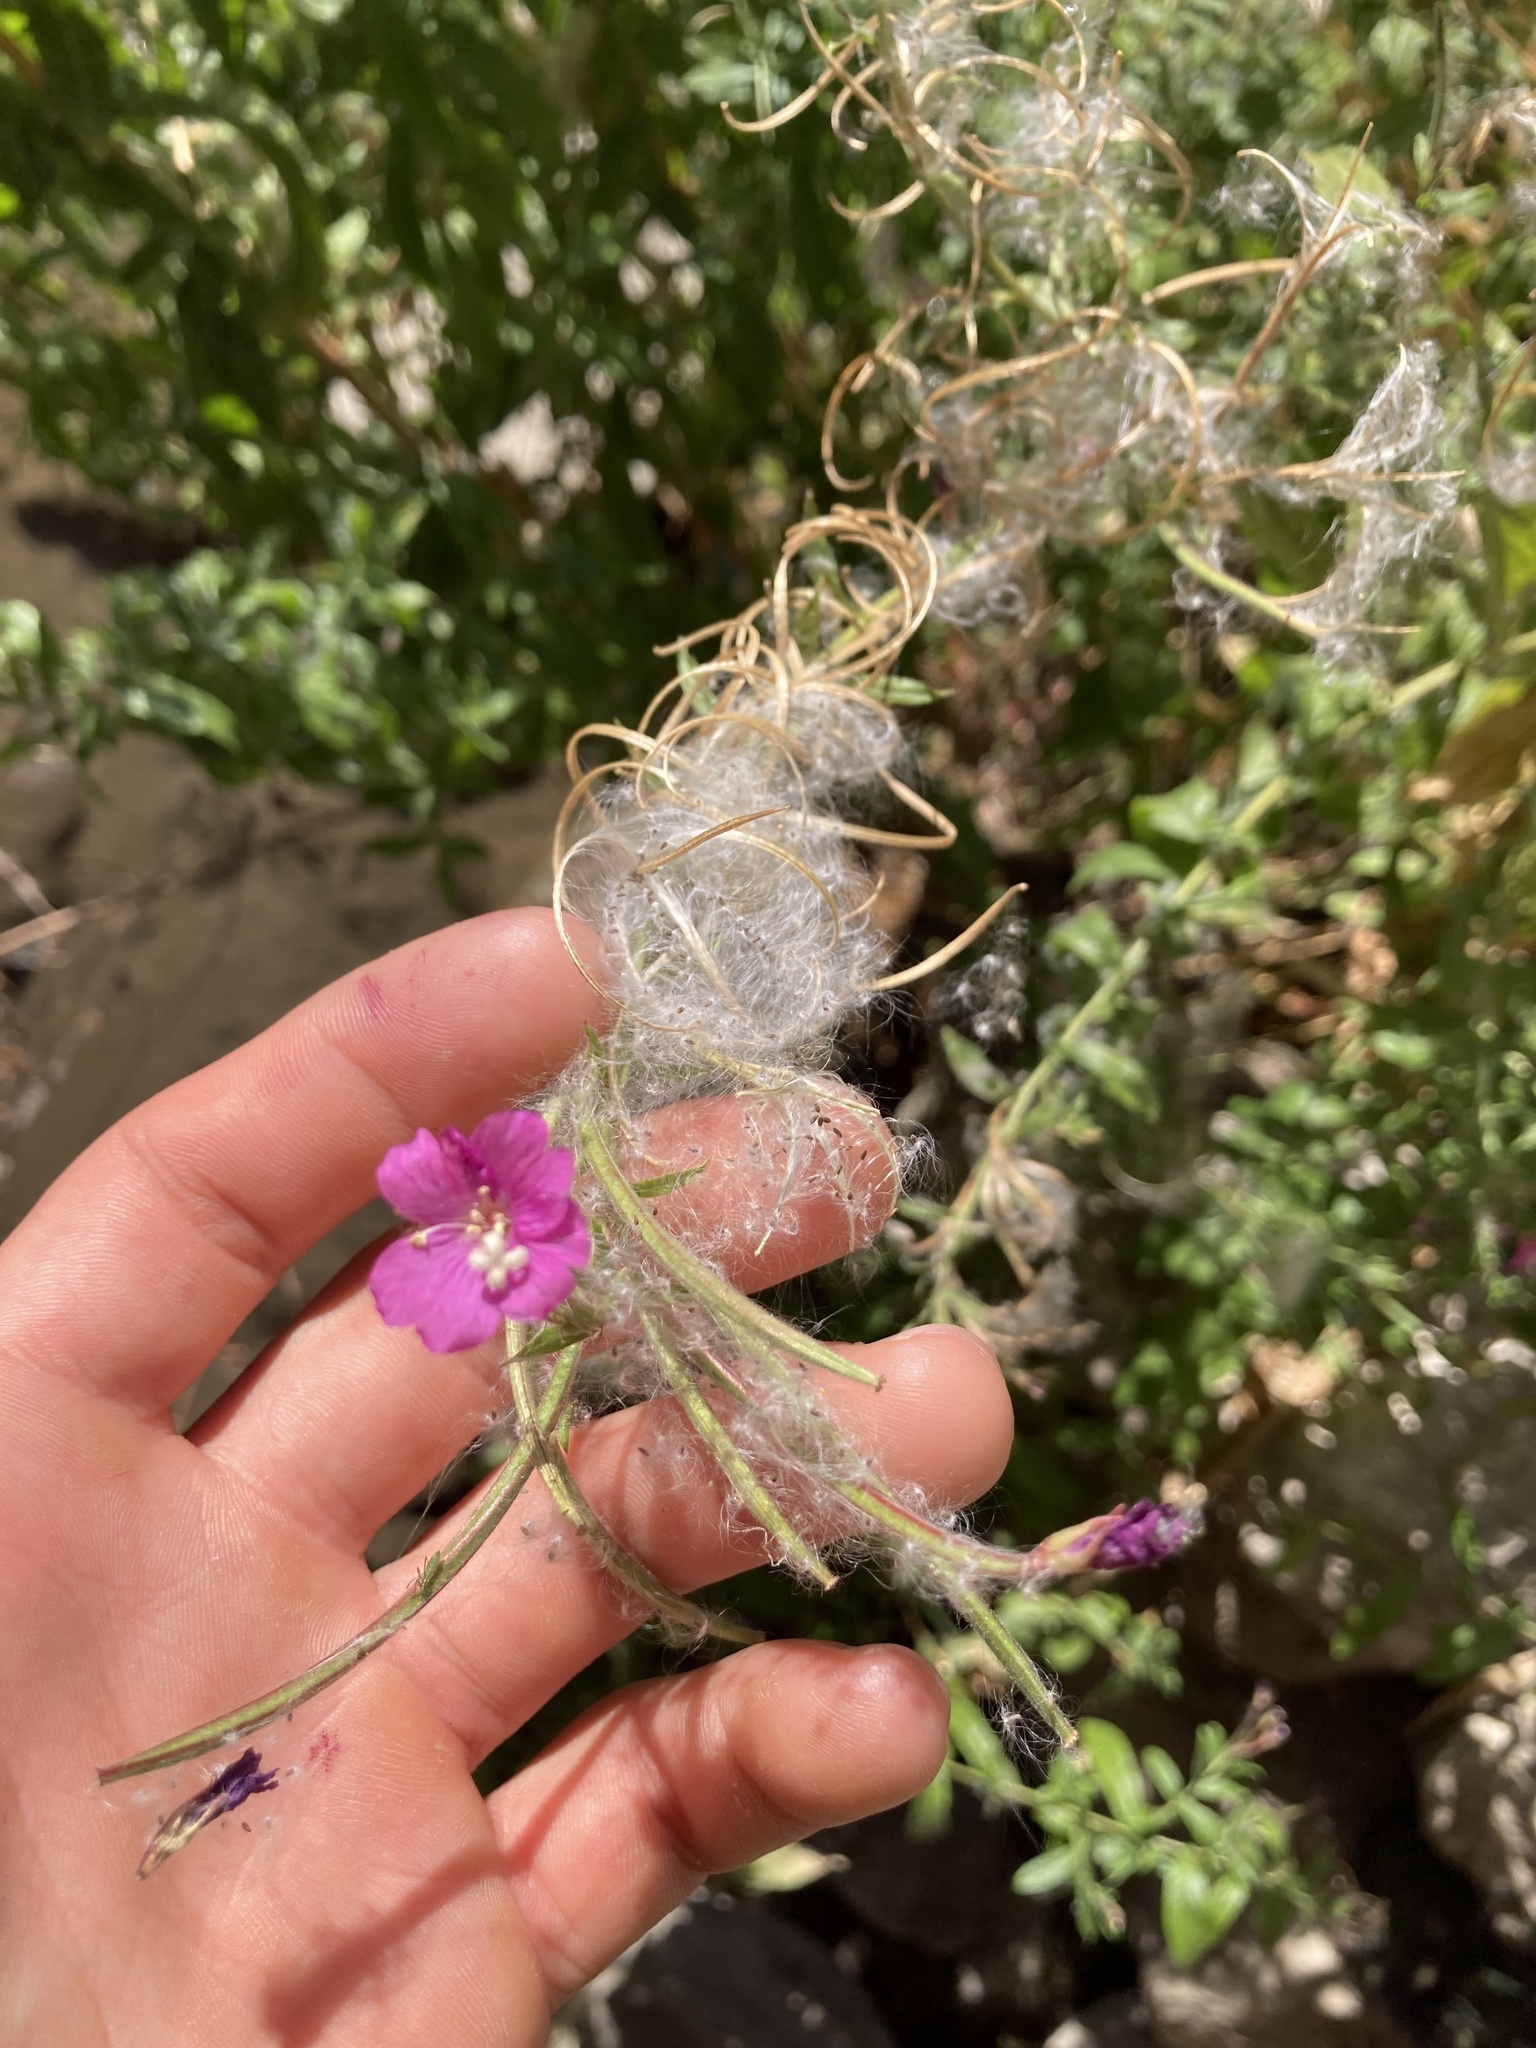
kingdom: Plantae
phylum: Tracheophyta
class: Magnoliopsida
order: Myrtales
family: Onagraceae
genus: Epilobium
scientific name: Epilobium hirsutum
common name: Great willowherb
